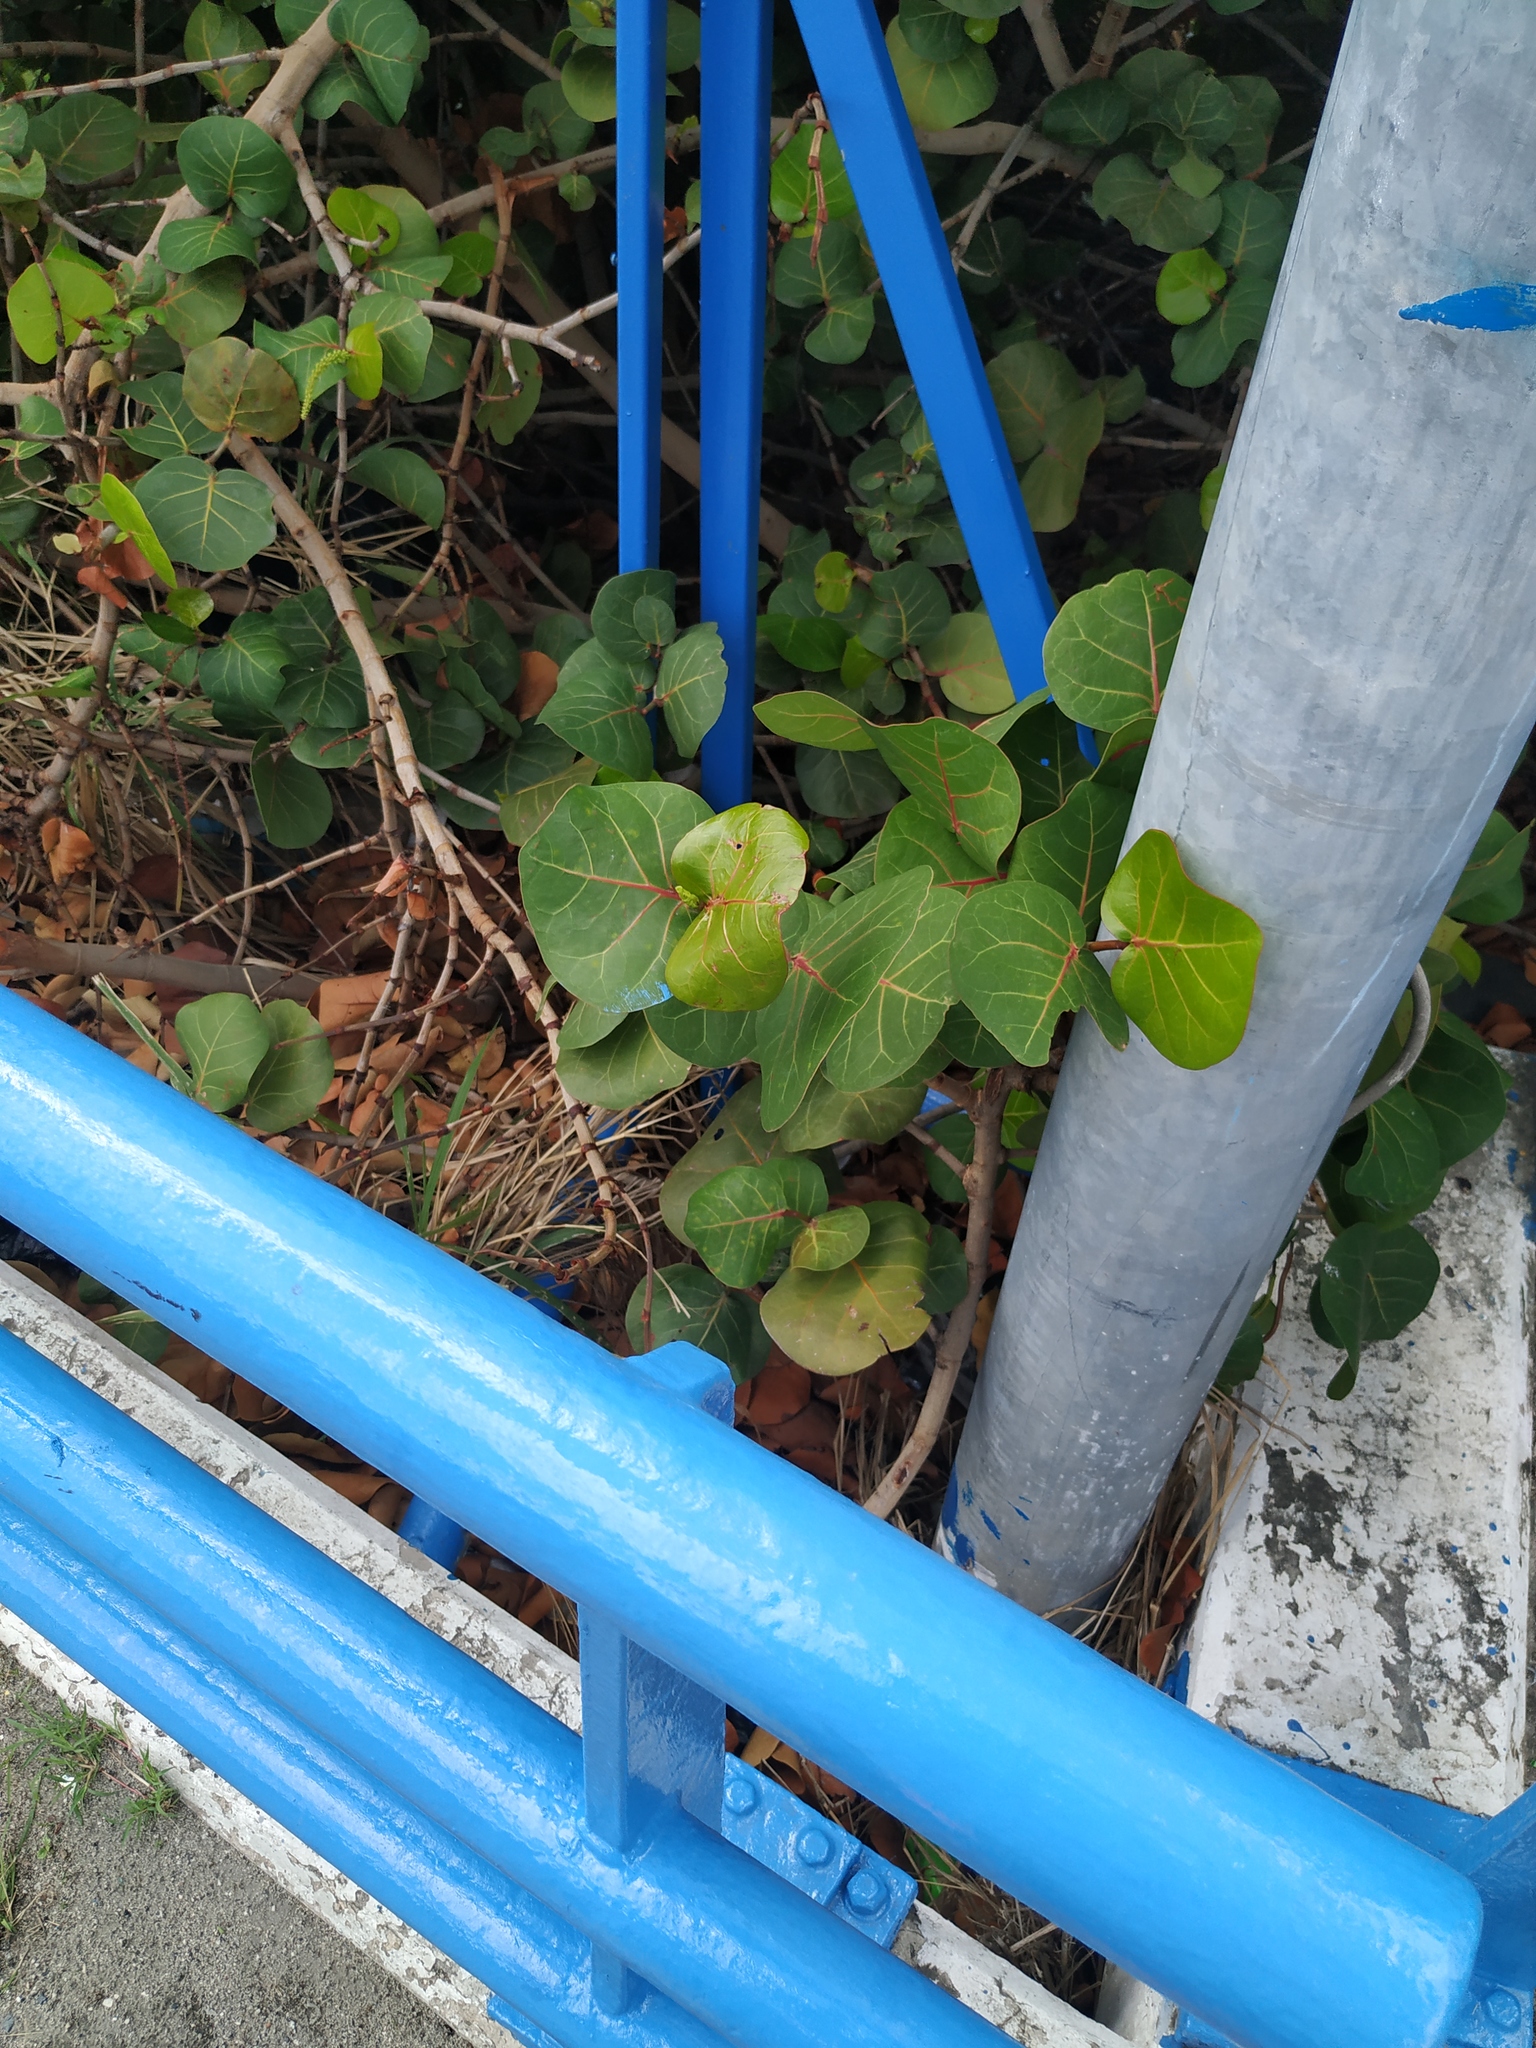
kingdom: Plantae
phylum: Tracheophyta
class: Magnoliopsida
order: Caryophyllales
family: Polygonaceae
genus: Coccoloba
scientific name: Coccoloba uvifera
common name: Seagrape
